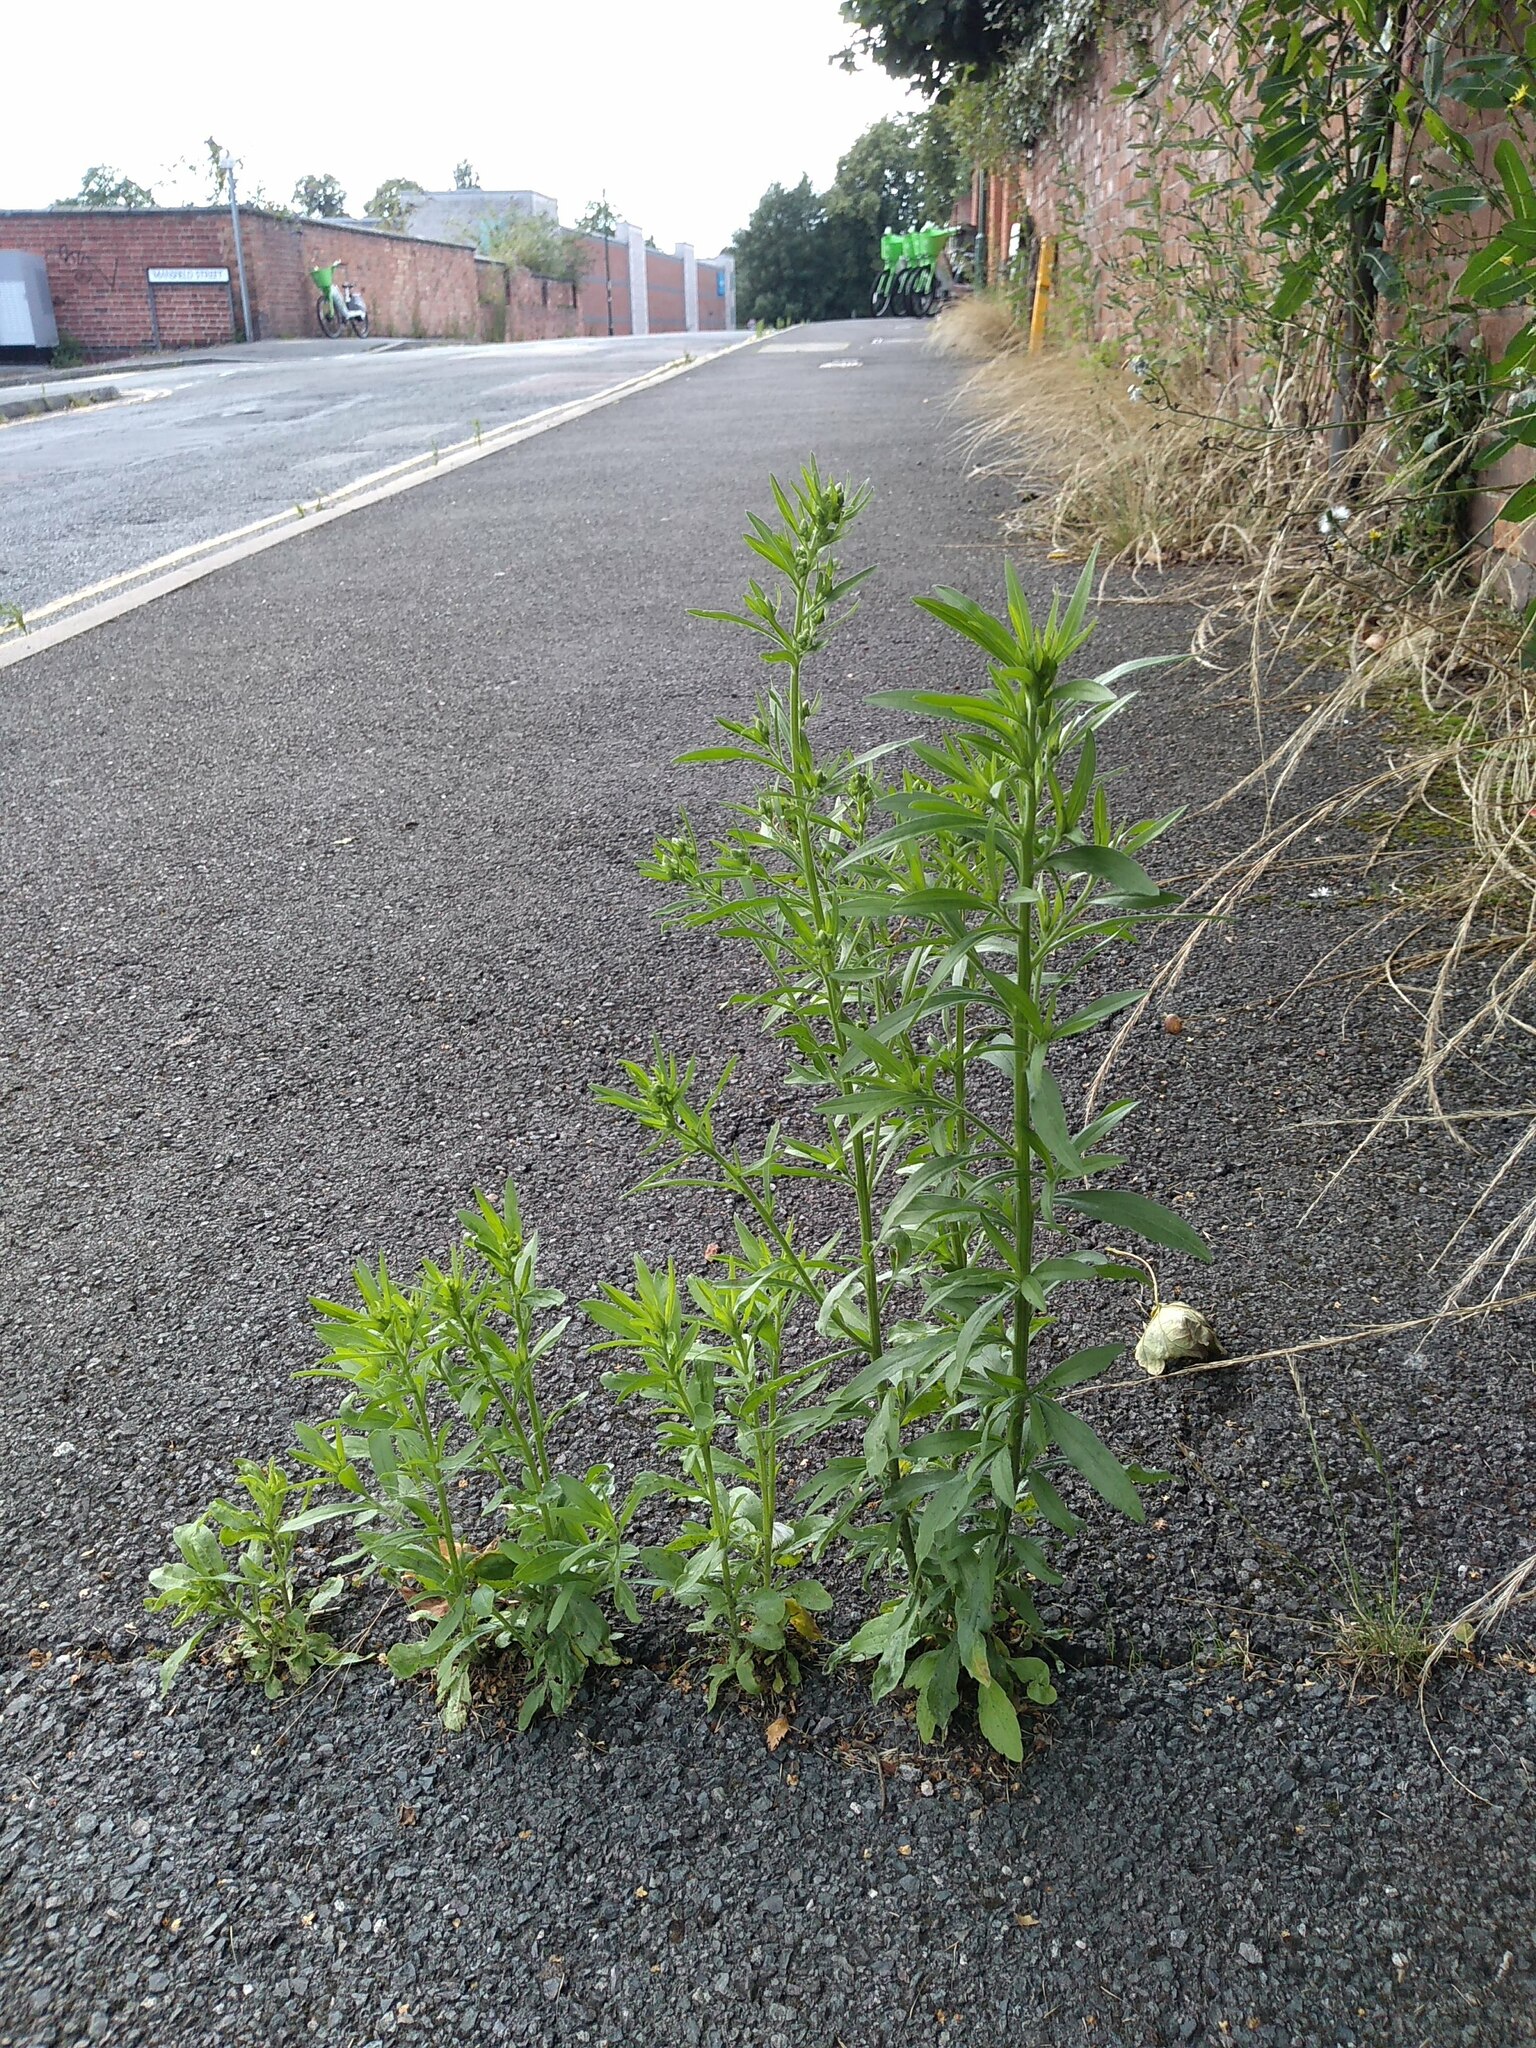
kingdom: Plantae
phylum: Tracheophyta
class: Magnoliopsida
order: Asterales
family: Asteraceae
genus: Erigeron
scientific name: Erigeron canadensis
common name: Canadian fleabane
